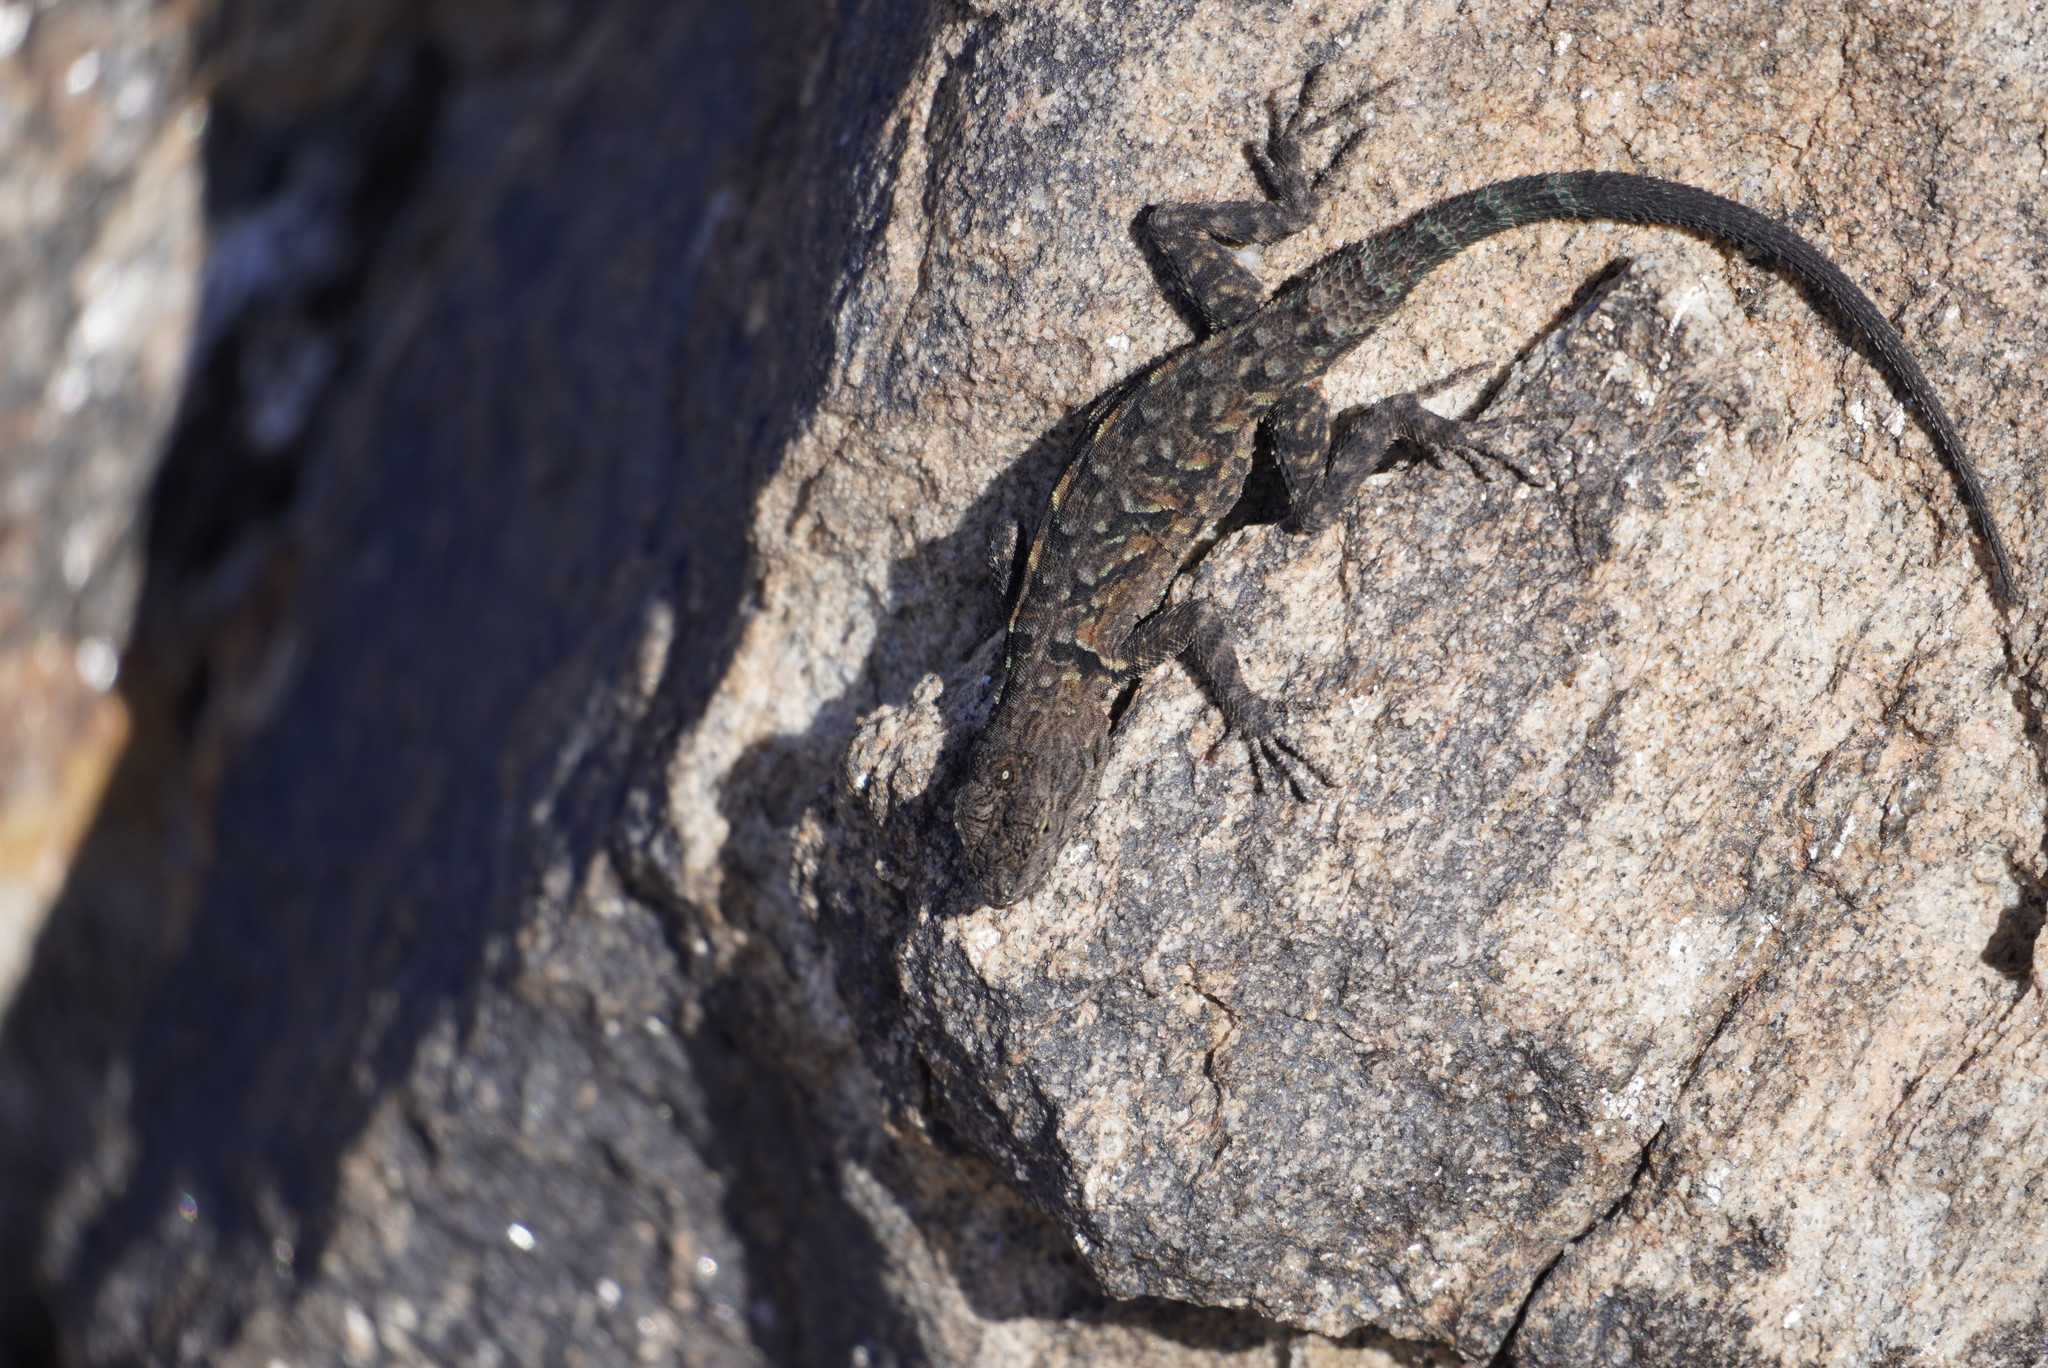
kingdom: Animalia
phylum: Chordata
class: Squamata
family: Phrynosomatidae
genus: Urosaurus
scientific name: Urosaurus ornatus
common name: Ornate tree lizard
